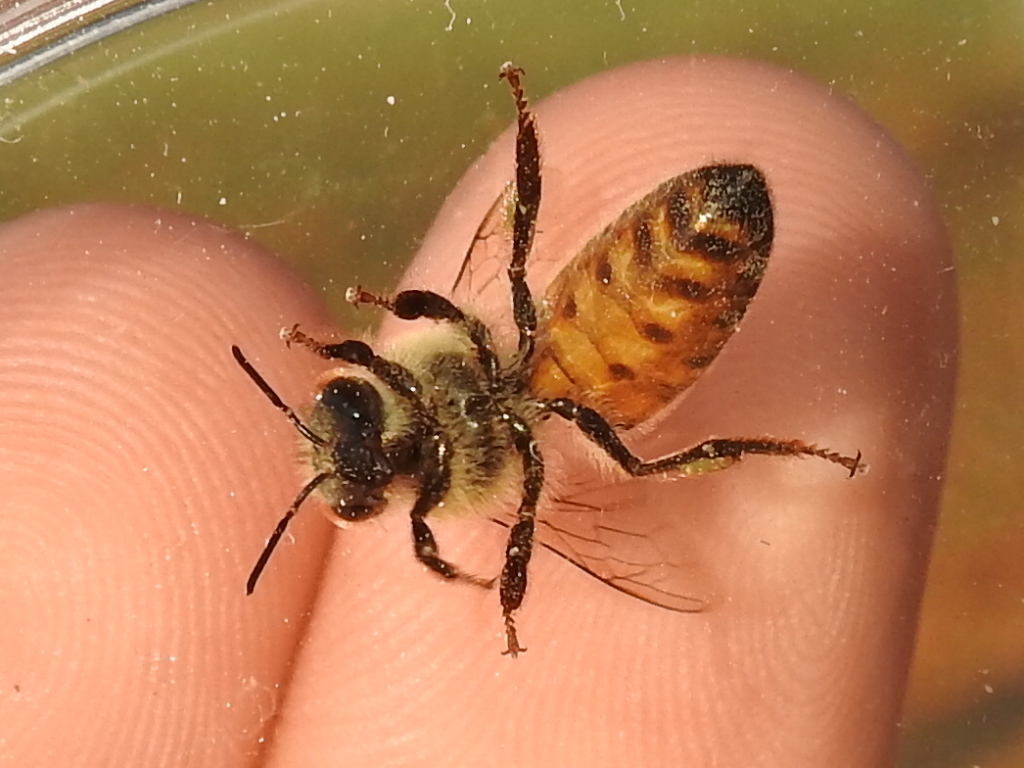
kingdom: Animalia
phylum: Arthropoda
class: Insecta
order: Hymenoptera
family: Apidae
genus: Apis
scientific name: Apis mellifera
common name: Honey bee
